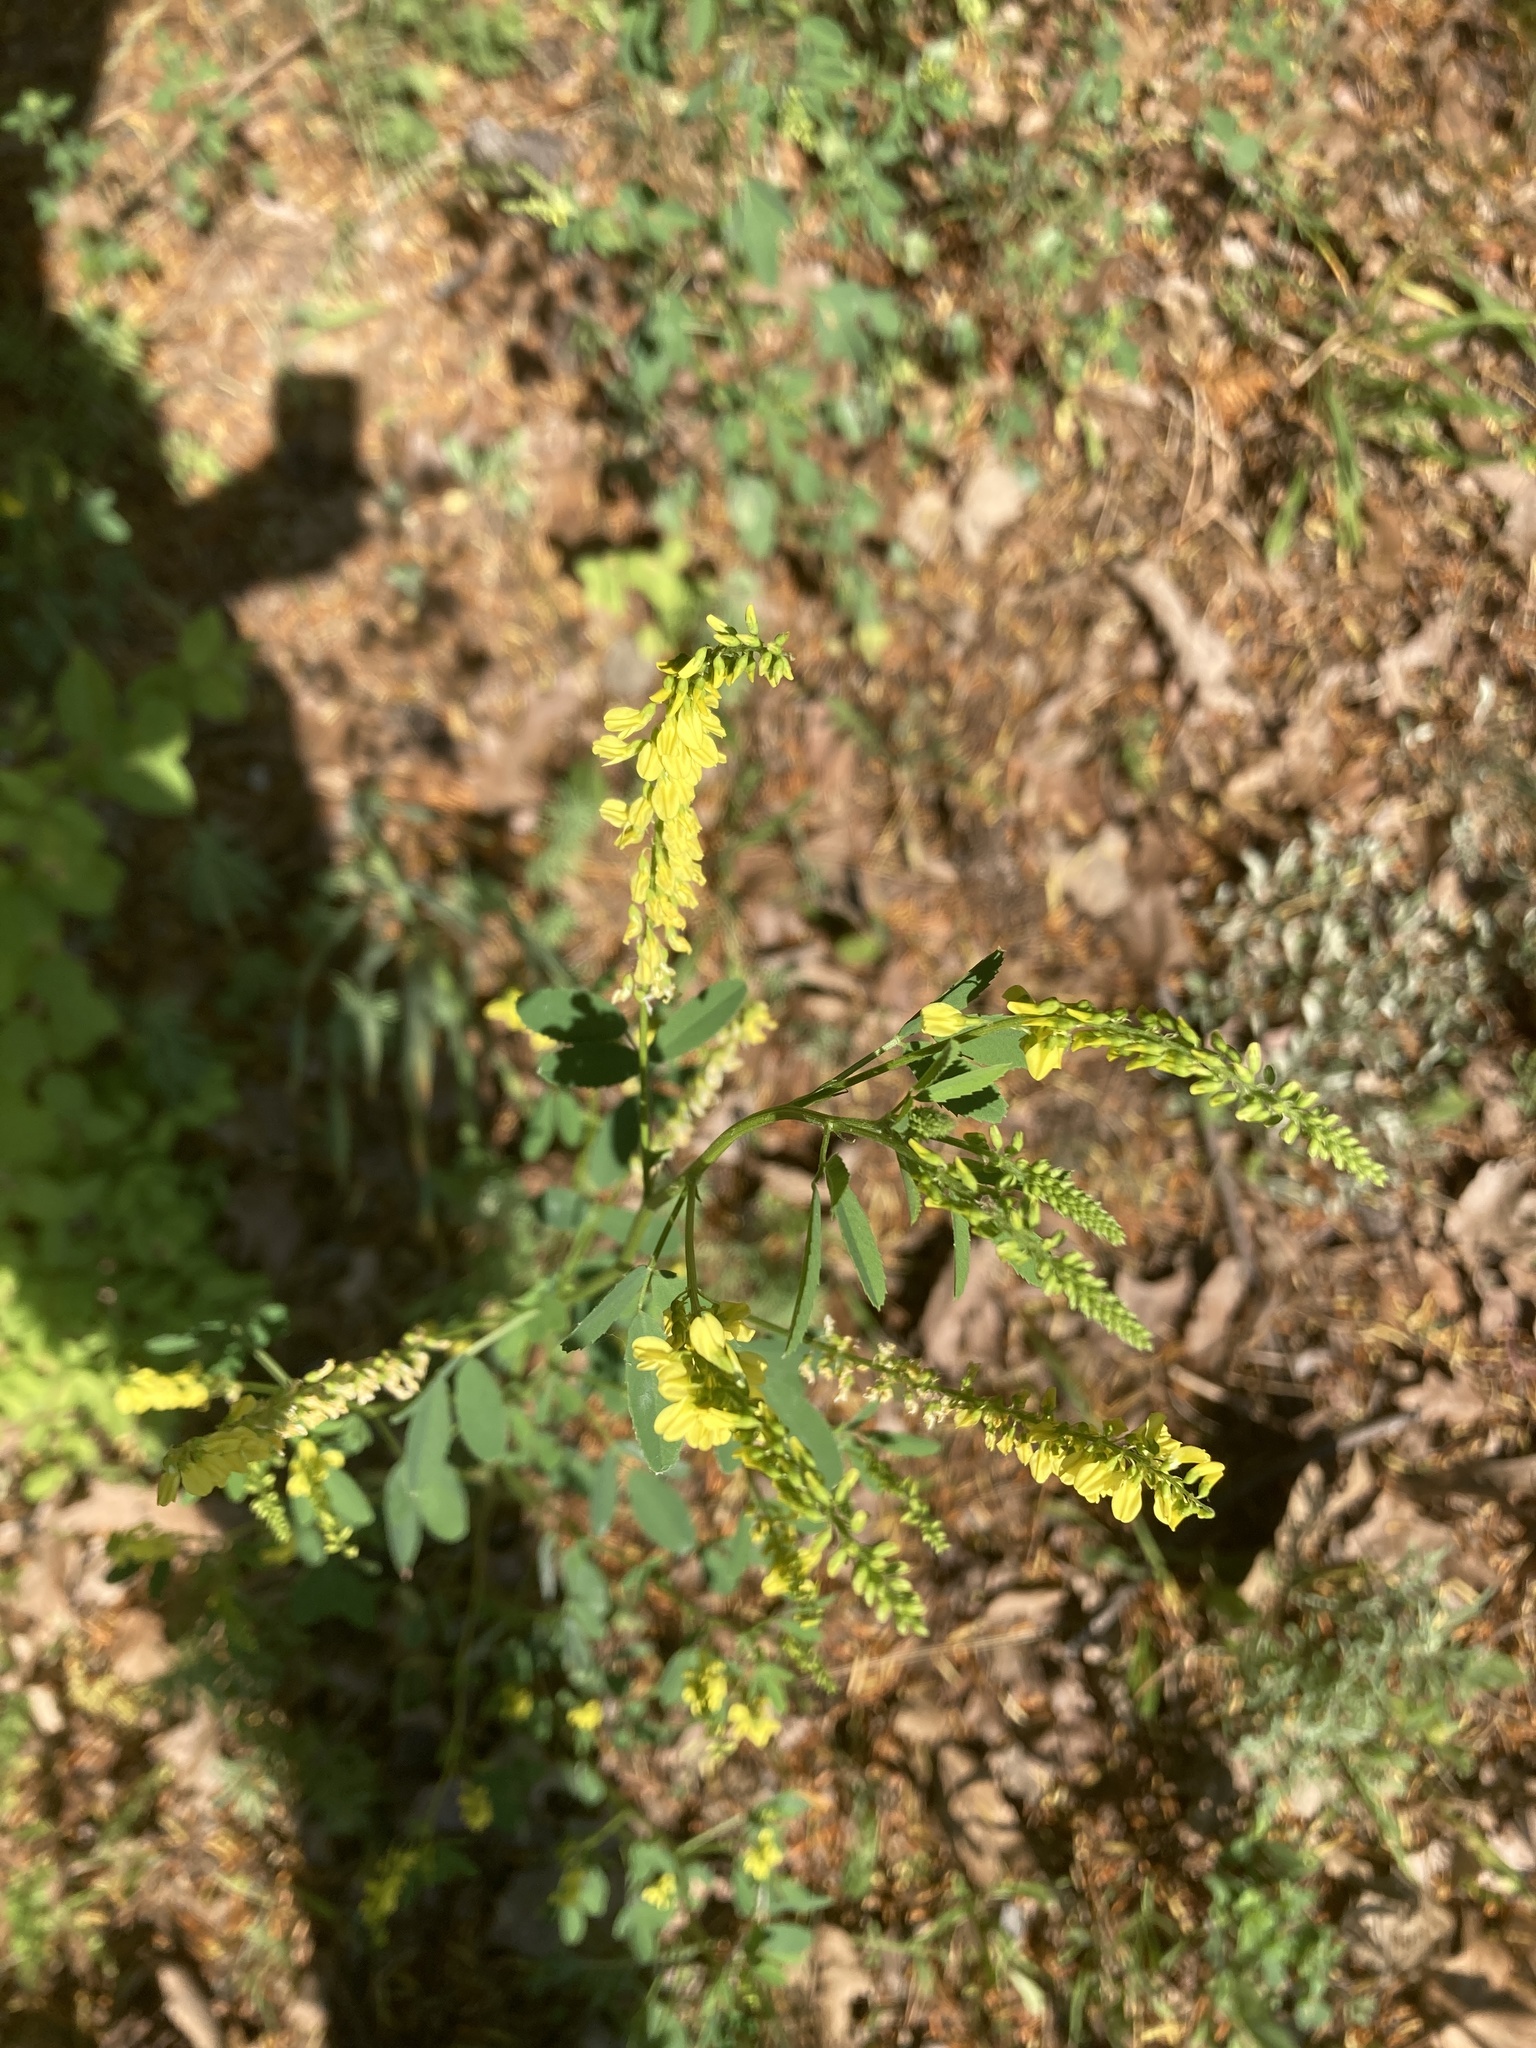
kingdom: Plantae
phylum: Tracheophyta
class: Magnoliopsida
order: Fabales
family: Fabaceae
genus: Melilotus
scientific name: Melilotus officinalis
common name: Sweetclover
